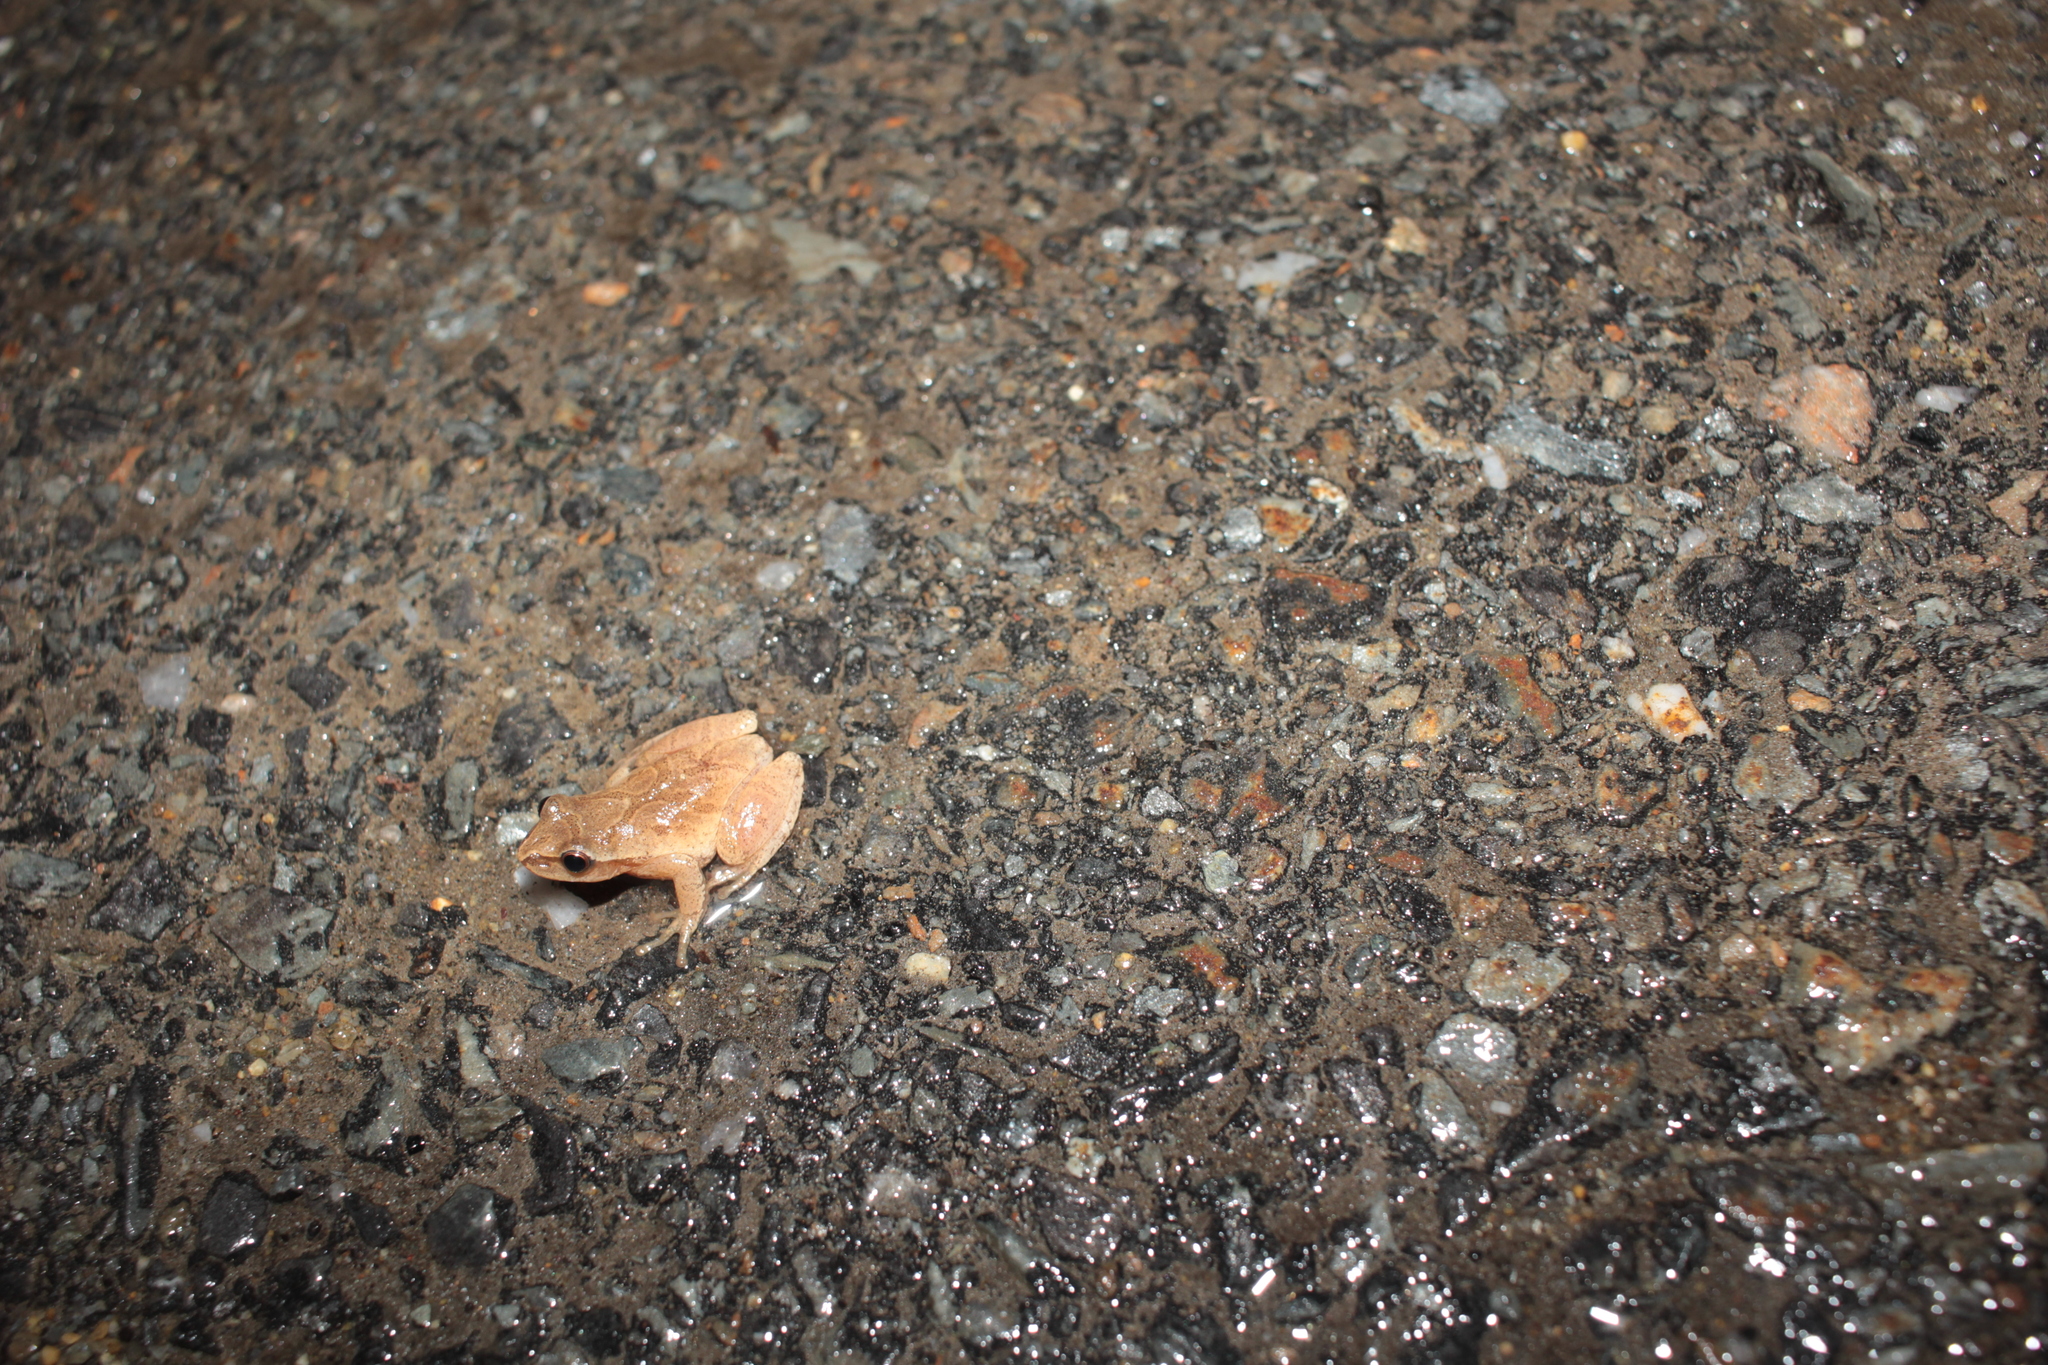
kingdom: Animalia
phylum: Chordata
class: Amphibia
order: Anura
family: Hylidae
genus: Pseudacris
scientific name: Pseudacris crucifer
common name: Spring peeper
